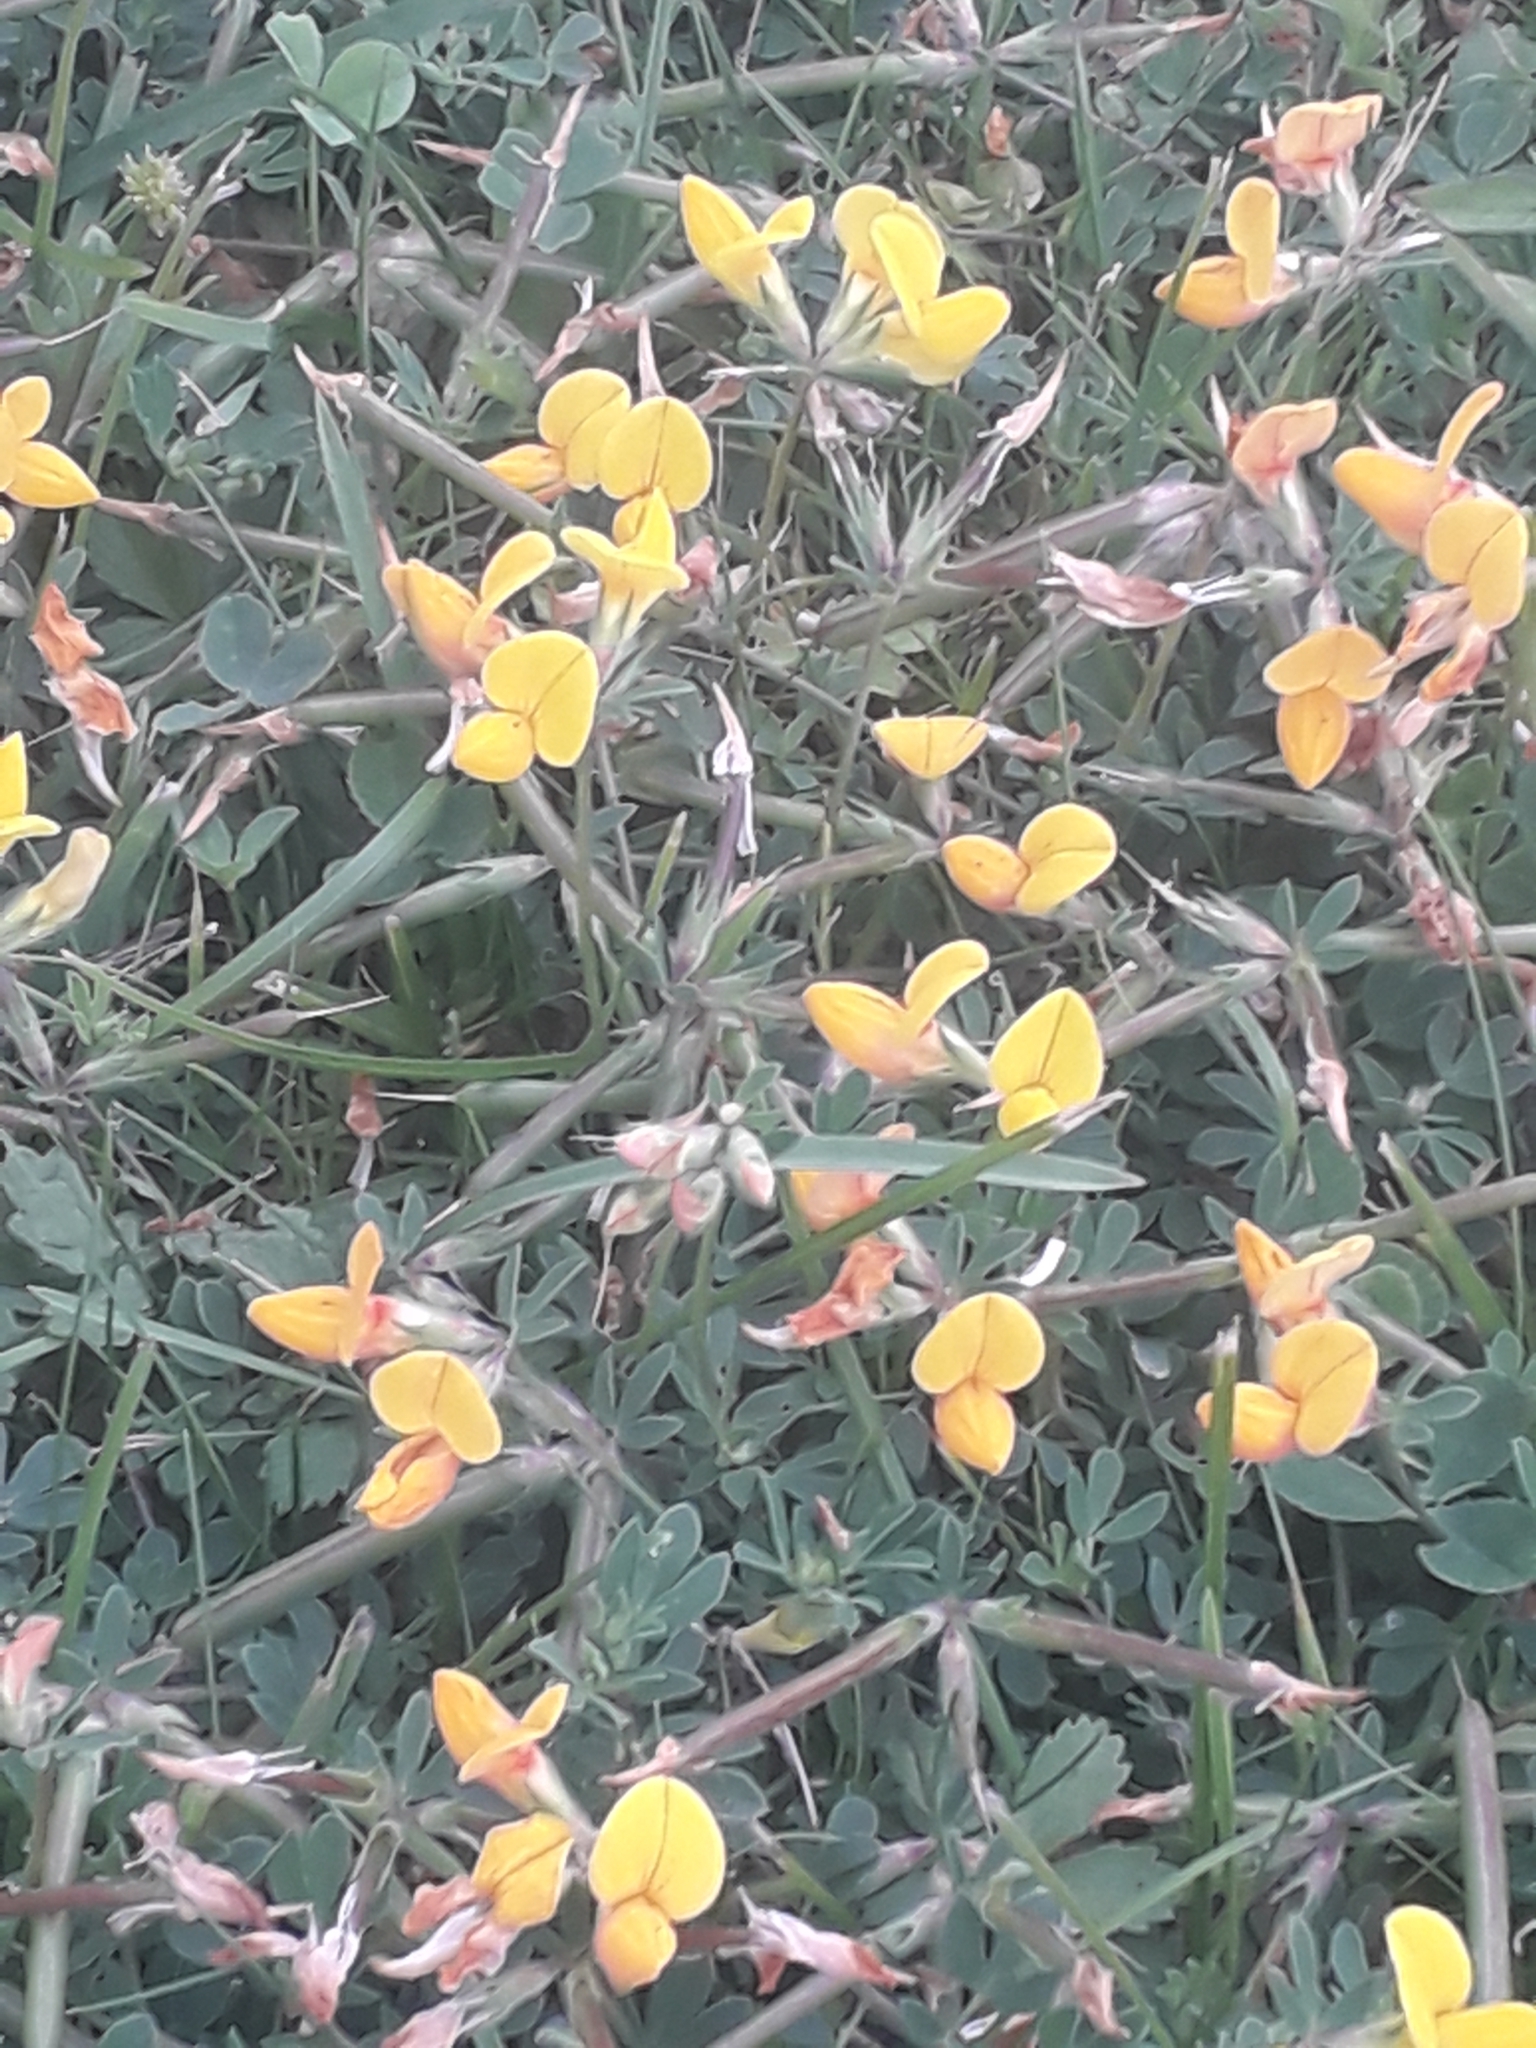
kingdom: Plantae
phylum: Tracheophyta
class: Magnoliopsida
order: Fabales
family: Fabaceae
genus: Lotus
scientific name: Lotus corniculatus
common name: Common bird's-foot-trefoil
